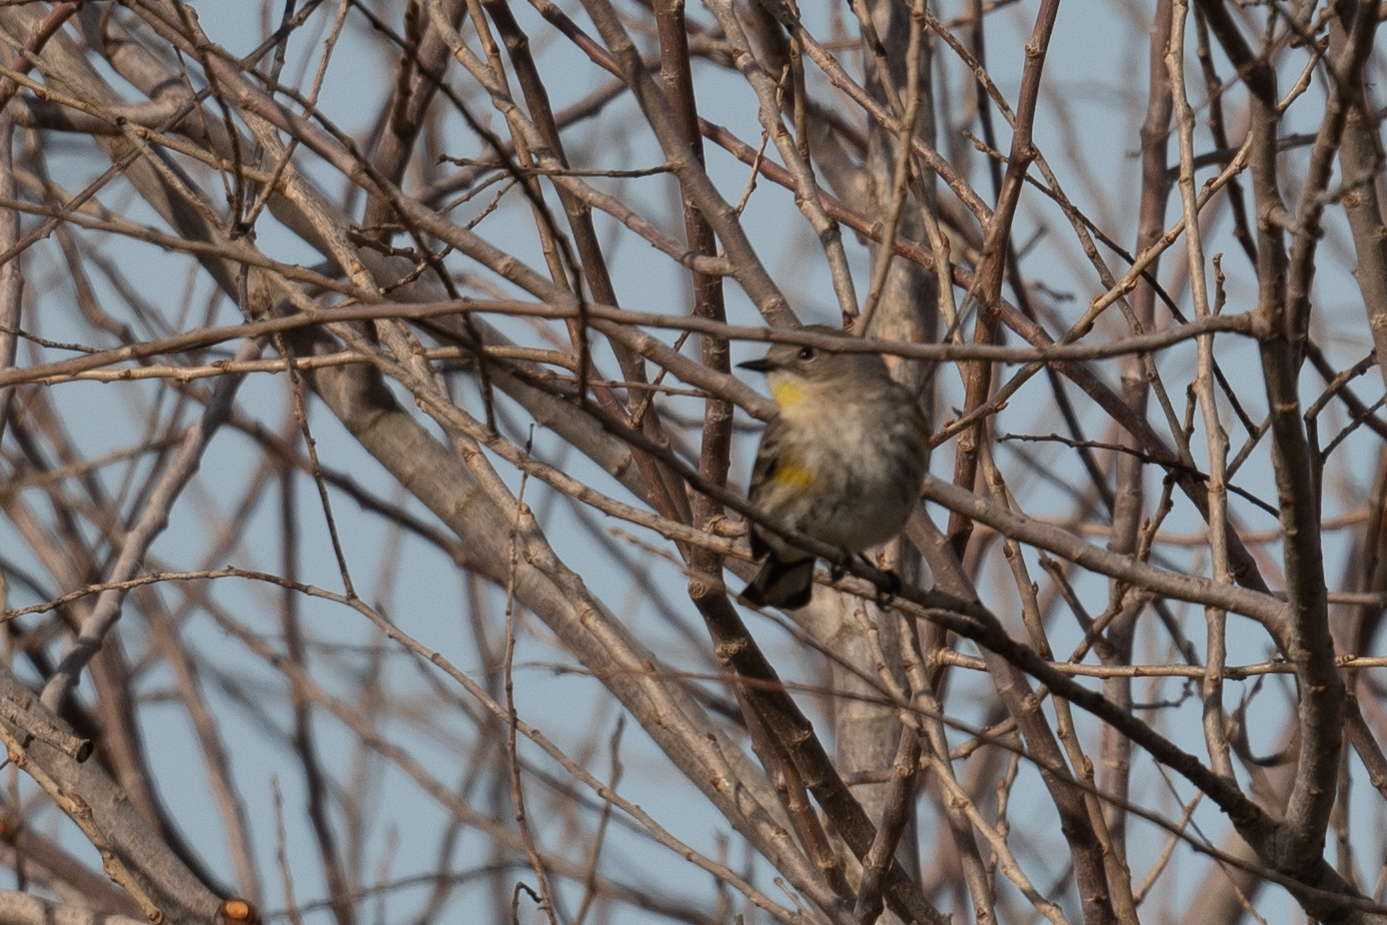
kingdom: Animalia
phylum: Chordata
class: Aves
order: Passeriformes
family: Parulidae
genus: Setophaga
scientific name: Setophaga coronata
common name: Myrtle warbler
